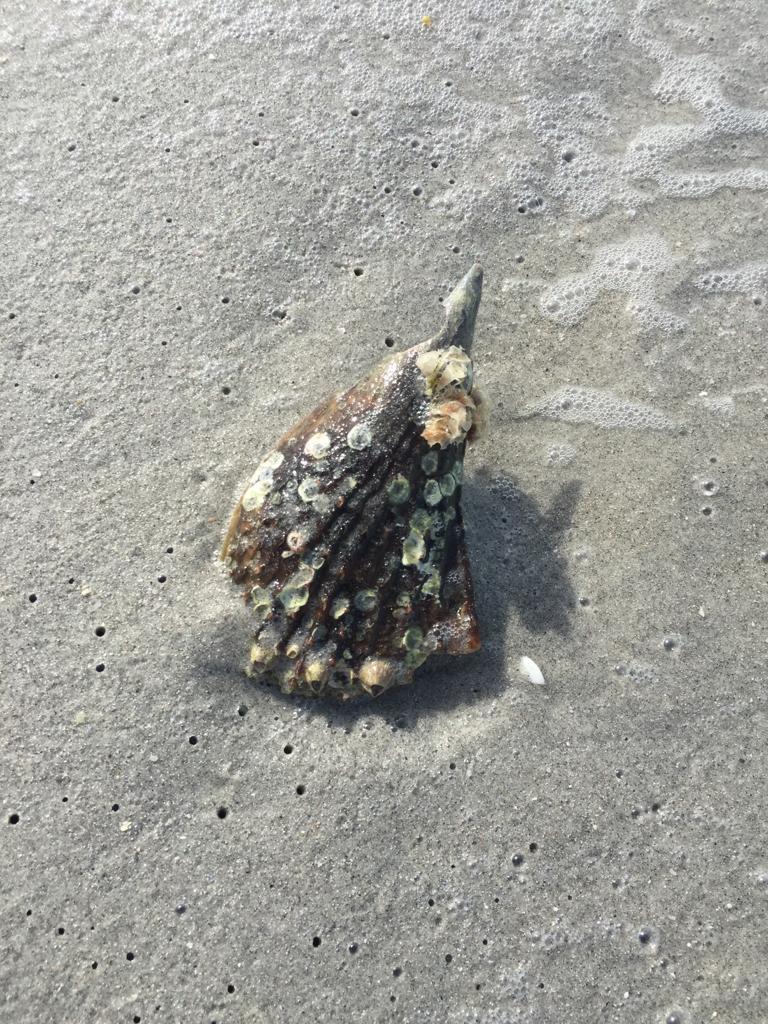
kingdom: Animalia
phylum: Mollusca
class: Bivalvia
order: Ostreida
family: Pinnidae
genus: Atrina
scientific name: Atrina rigida
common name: Stiff penshell
